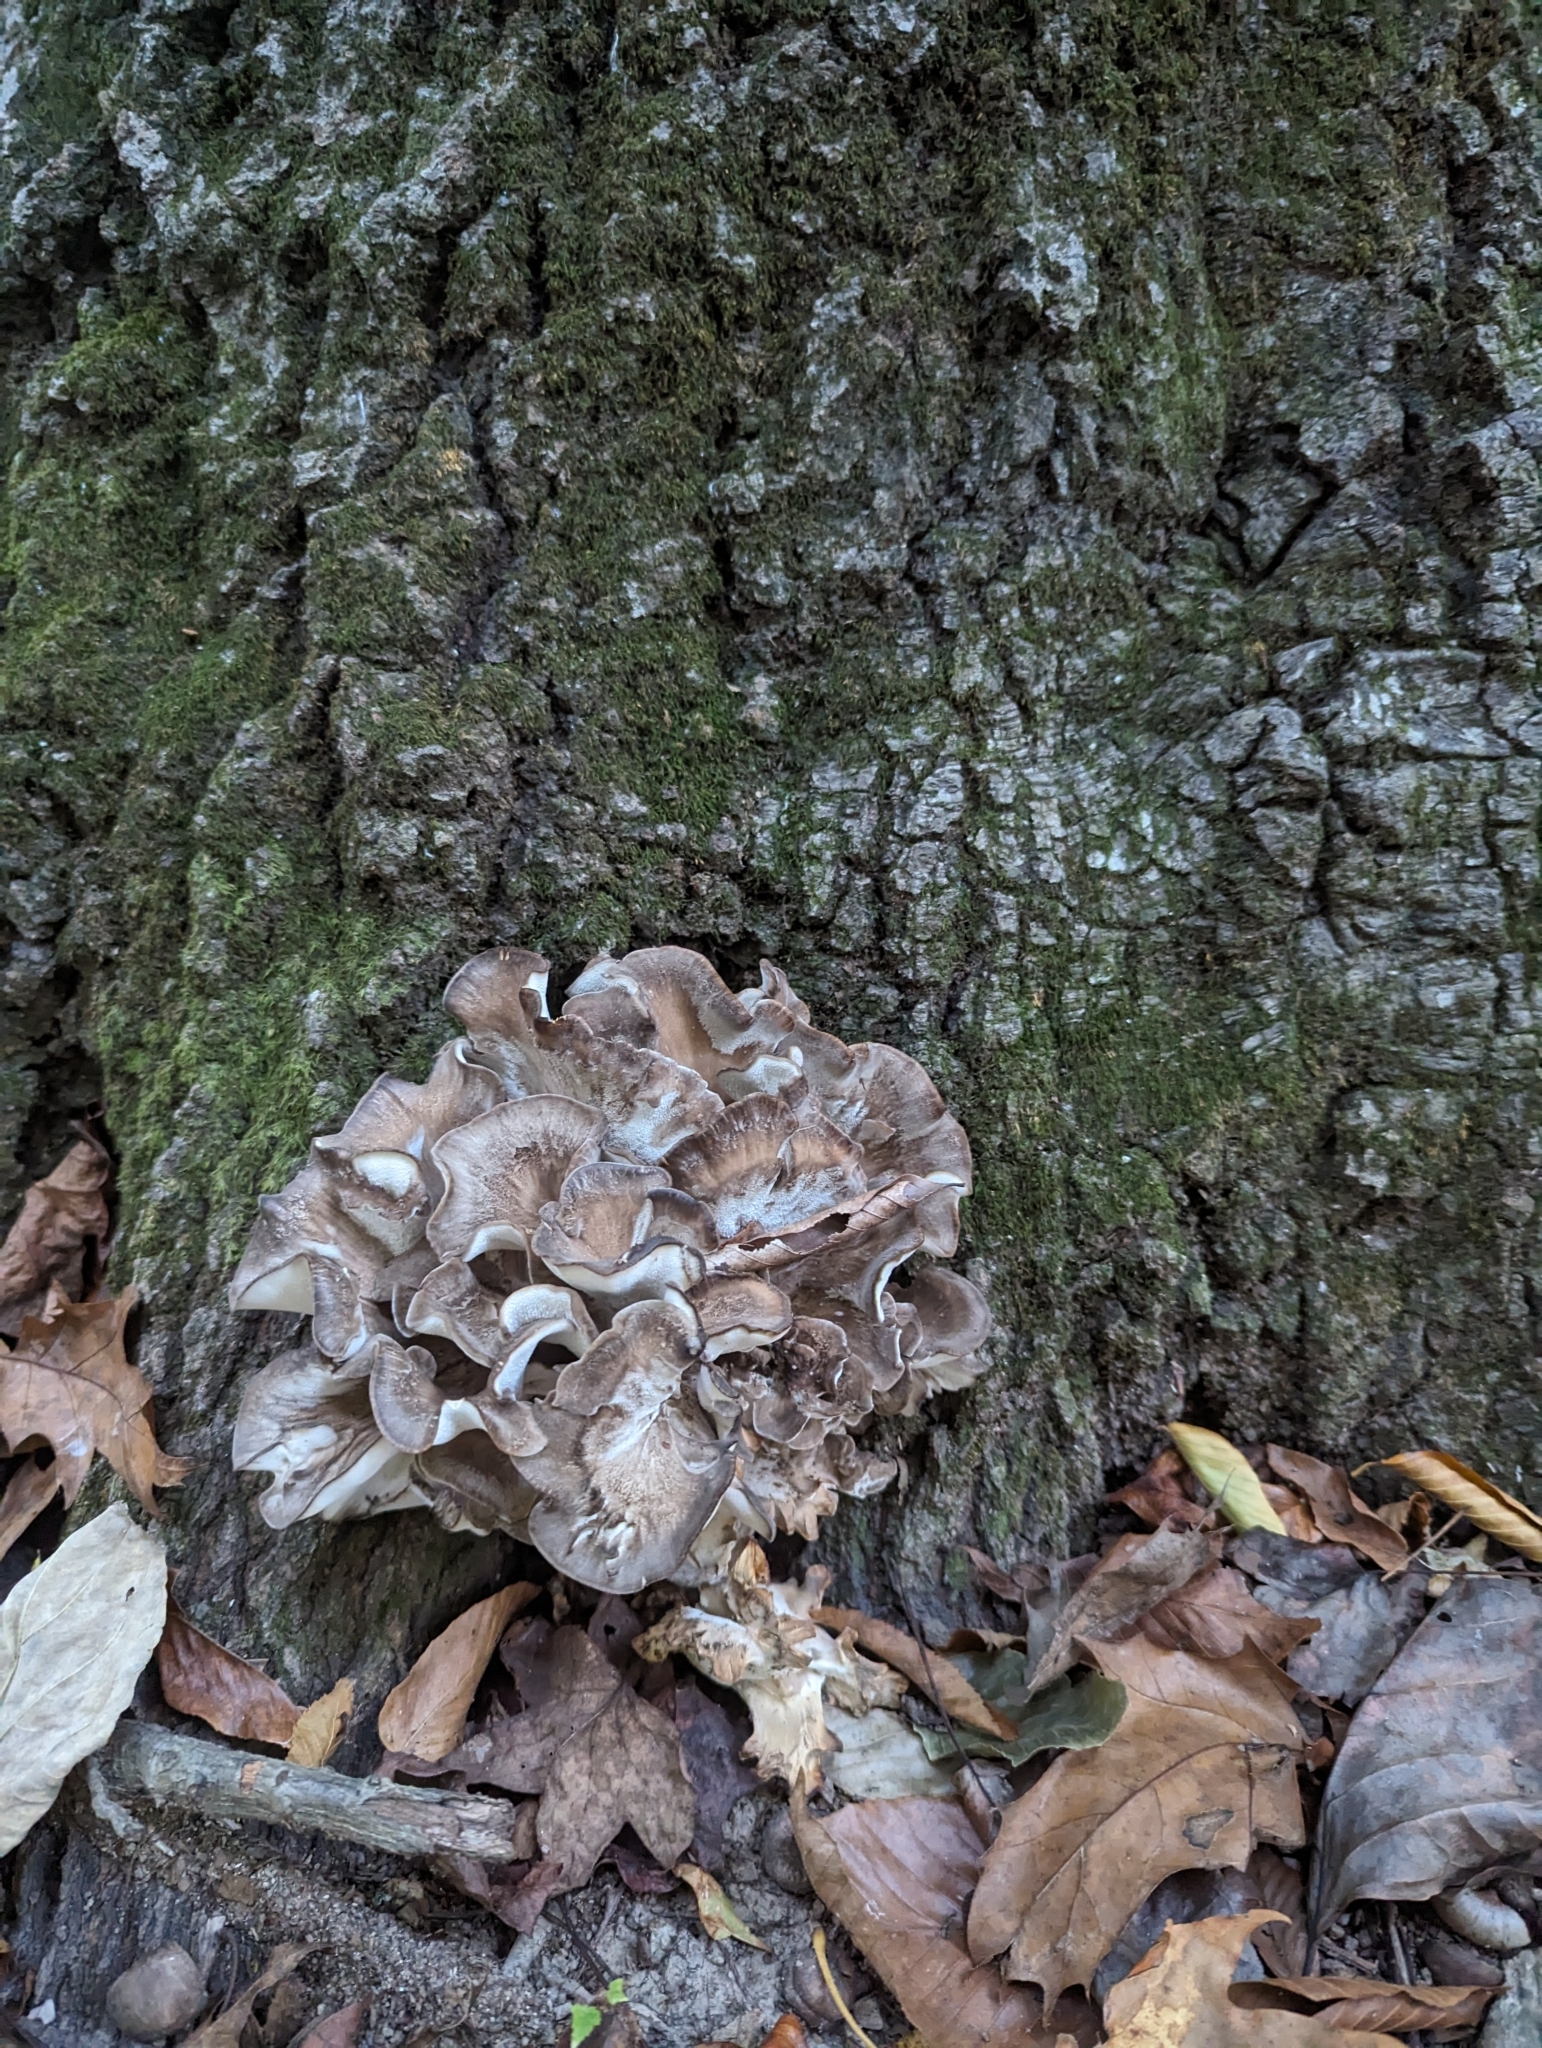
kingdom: Fungi
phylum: Basidiomycota
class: Agaricomycetes
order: Polyporales
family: Grifolaceae
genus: Grifola
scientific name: Grifola frondosa
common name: Hen of the woods
